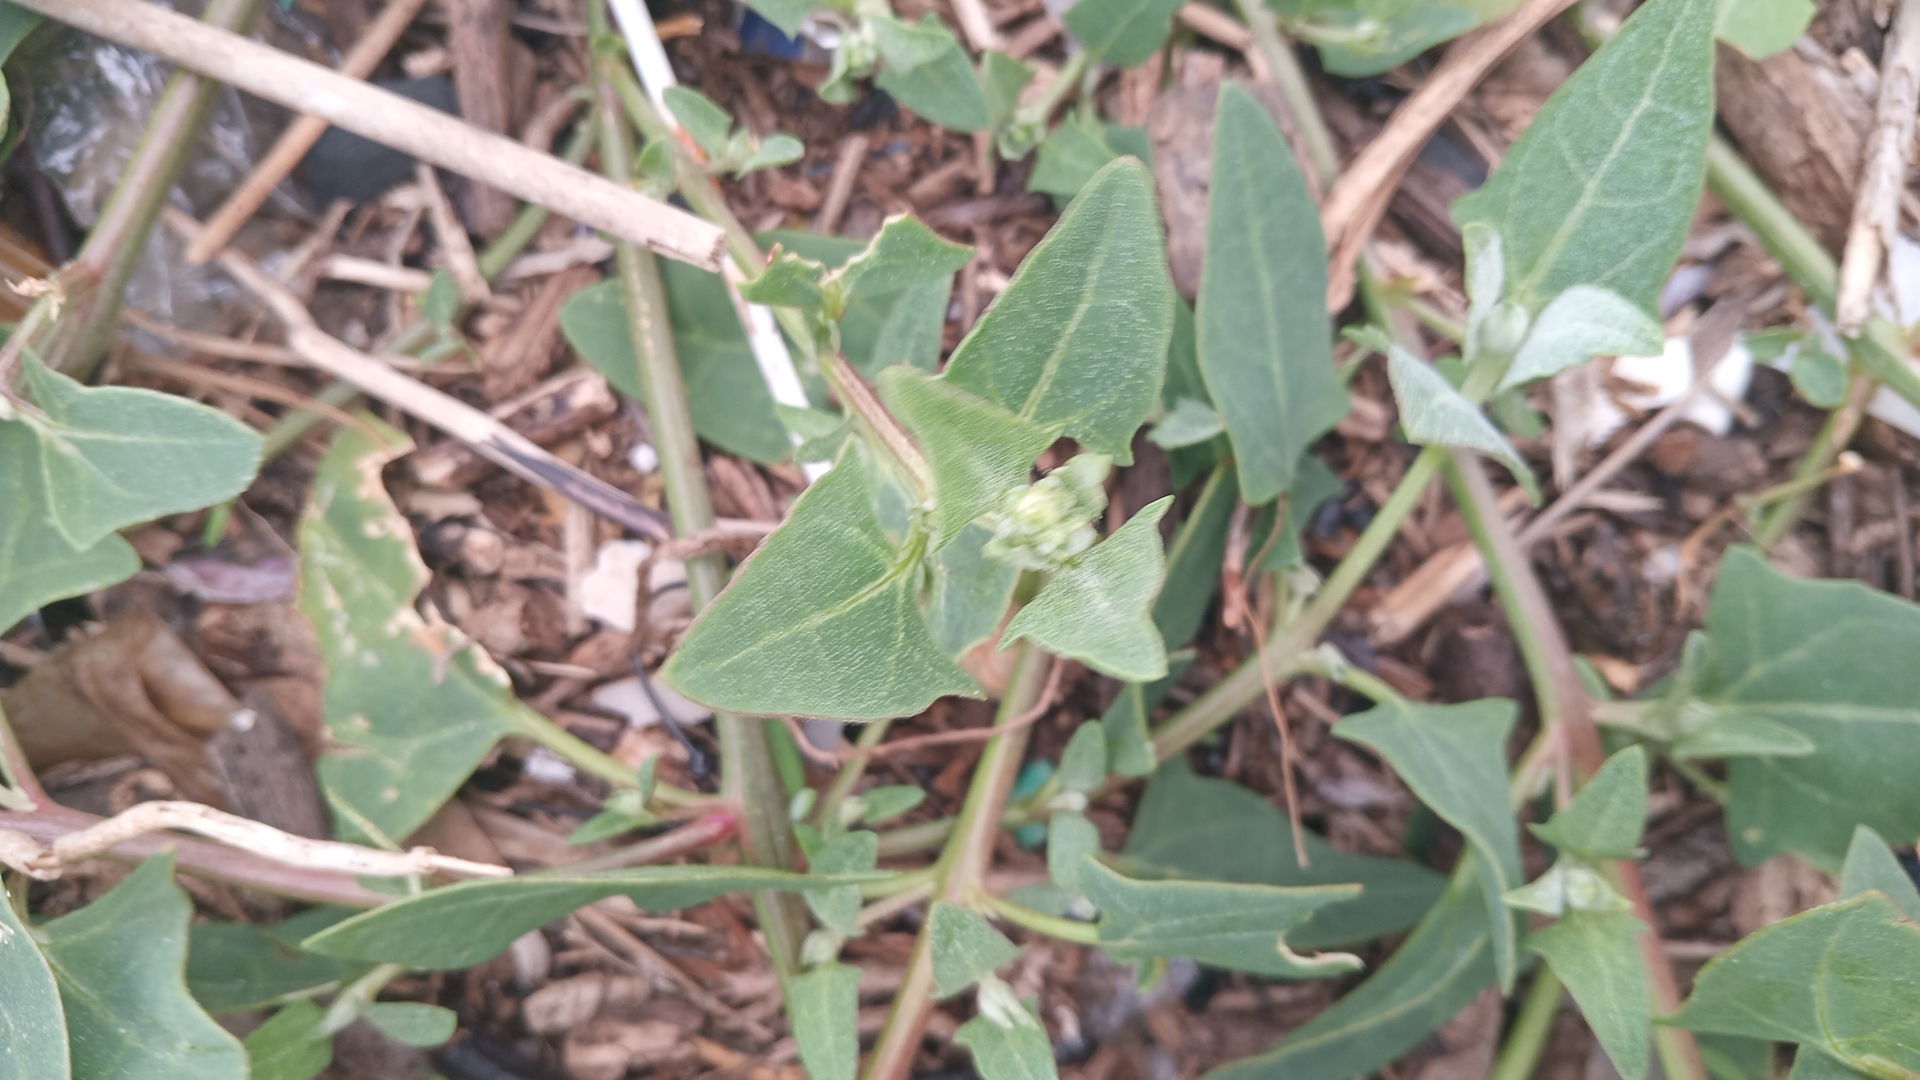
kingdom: Plantae
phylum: Tracheophyta
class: Magnoliopsida
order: Caryophyllales
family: Amaranthaceae
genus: Atriplex
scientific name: Atriplex prostrata
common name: Spear-leaved orache
